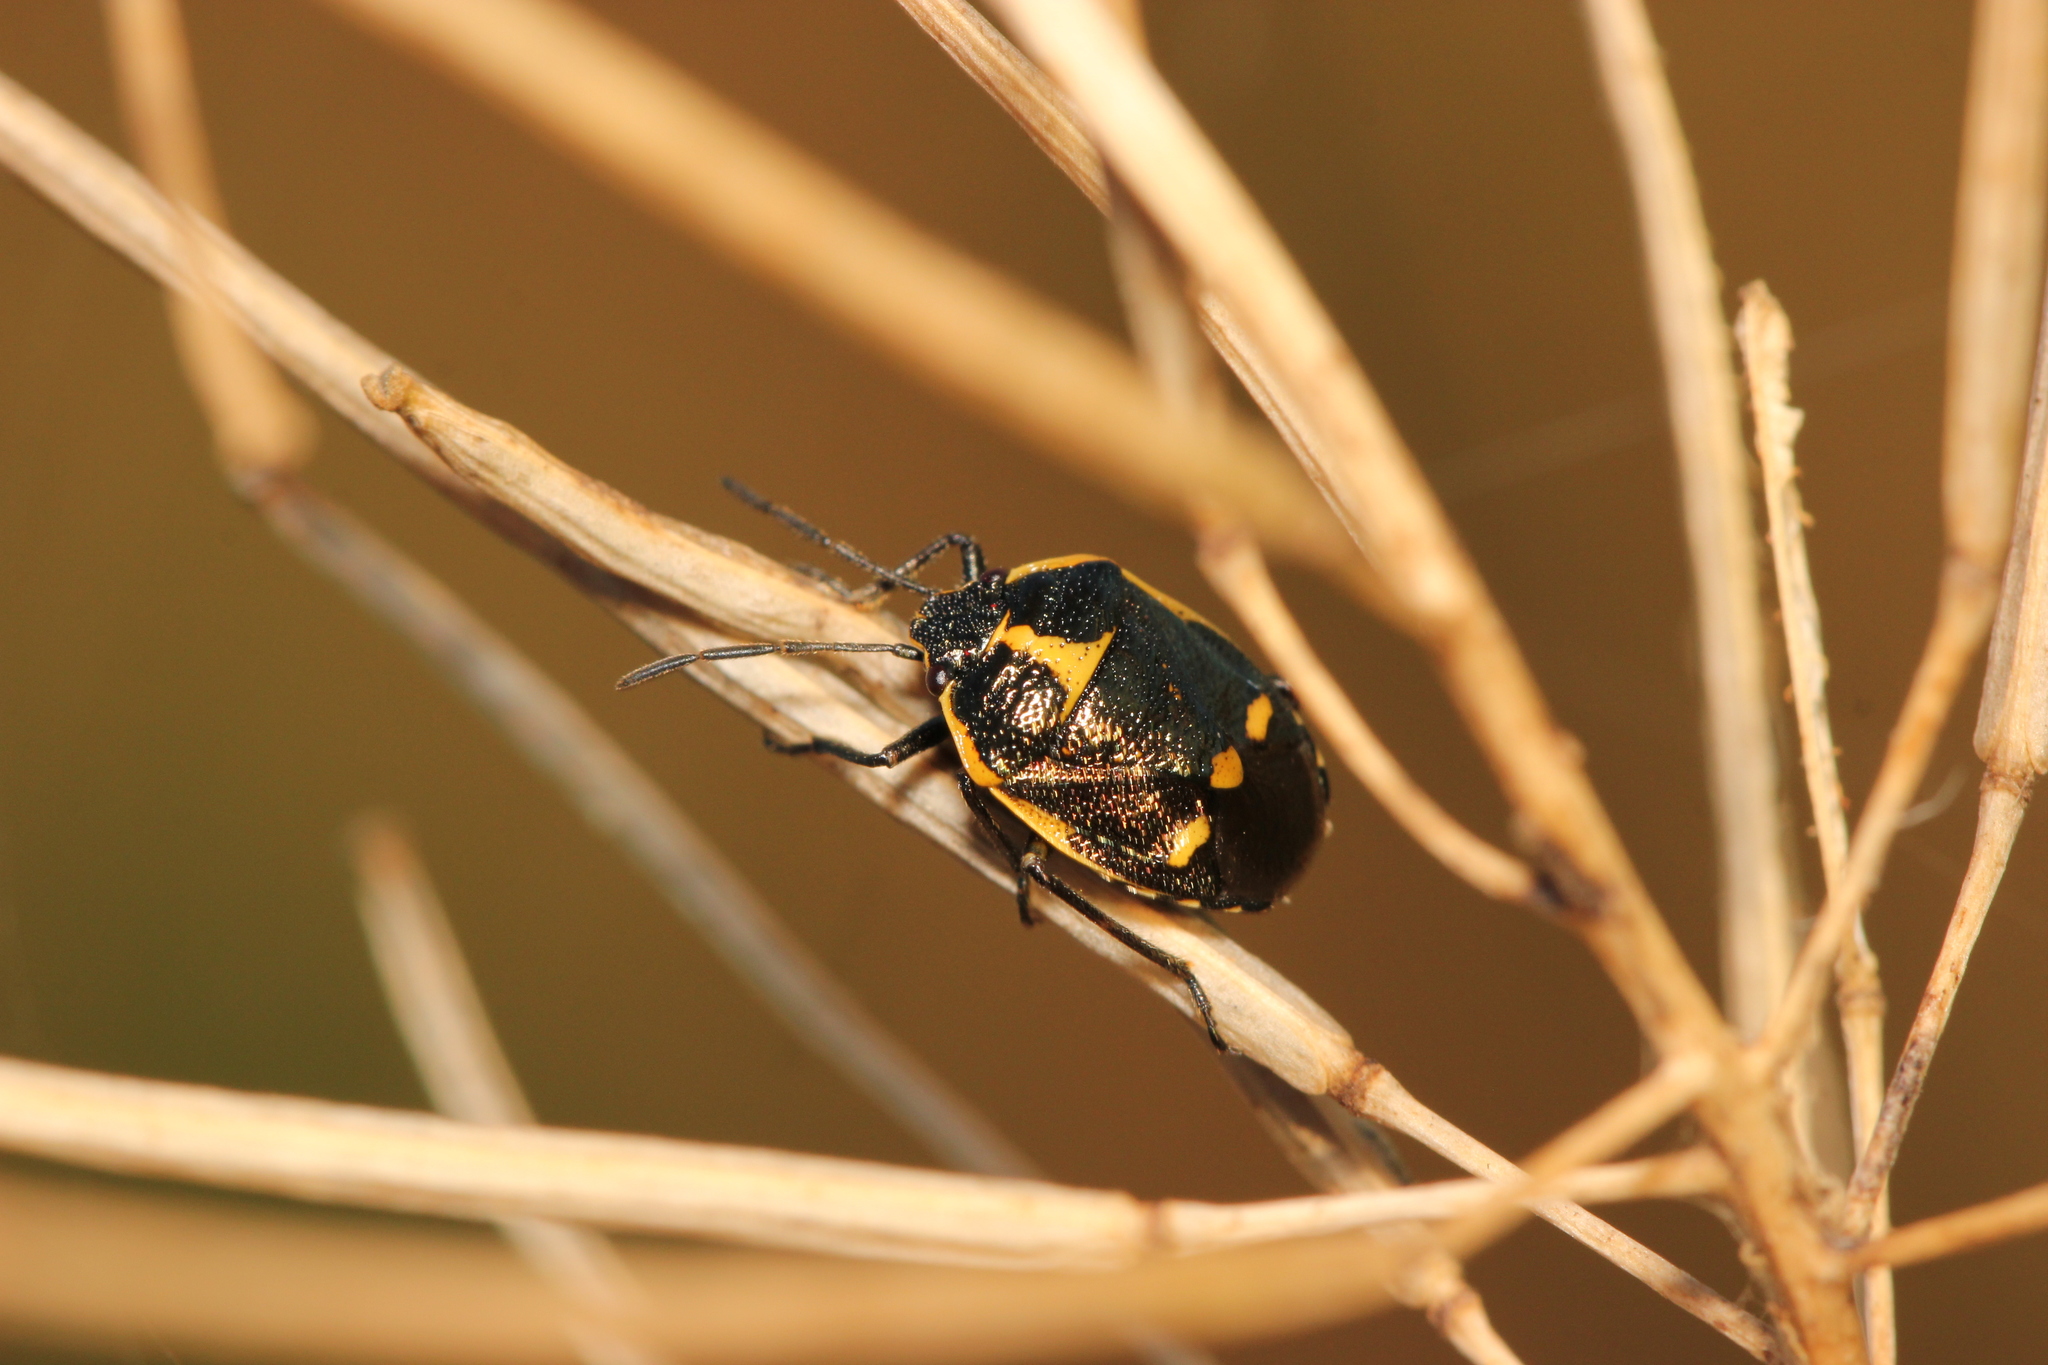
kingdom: Animalia
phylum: Arthropoda
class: Insecta
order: Hemiptera
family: Pentatomidae
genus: Eurydema
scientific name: Eurydema oleracea
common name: Cabbage bug
